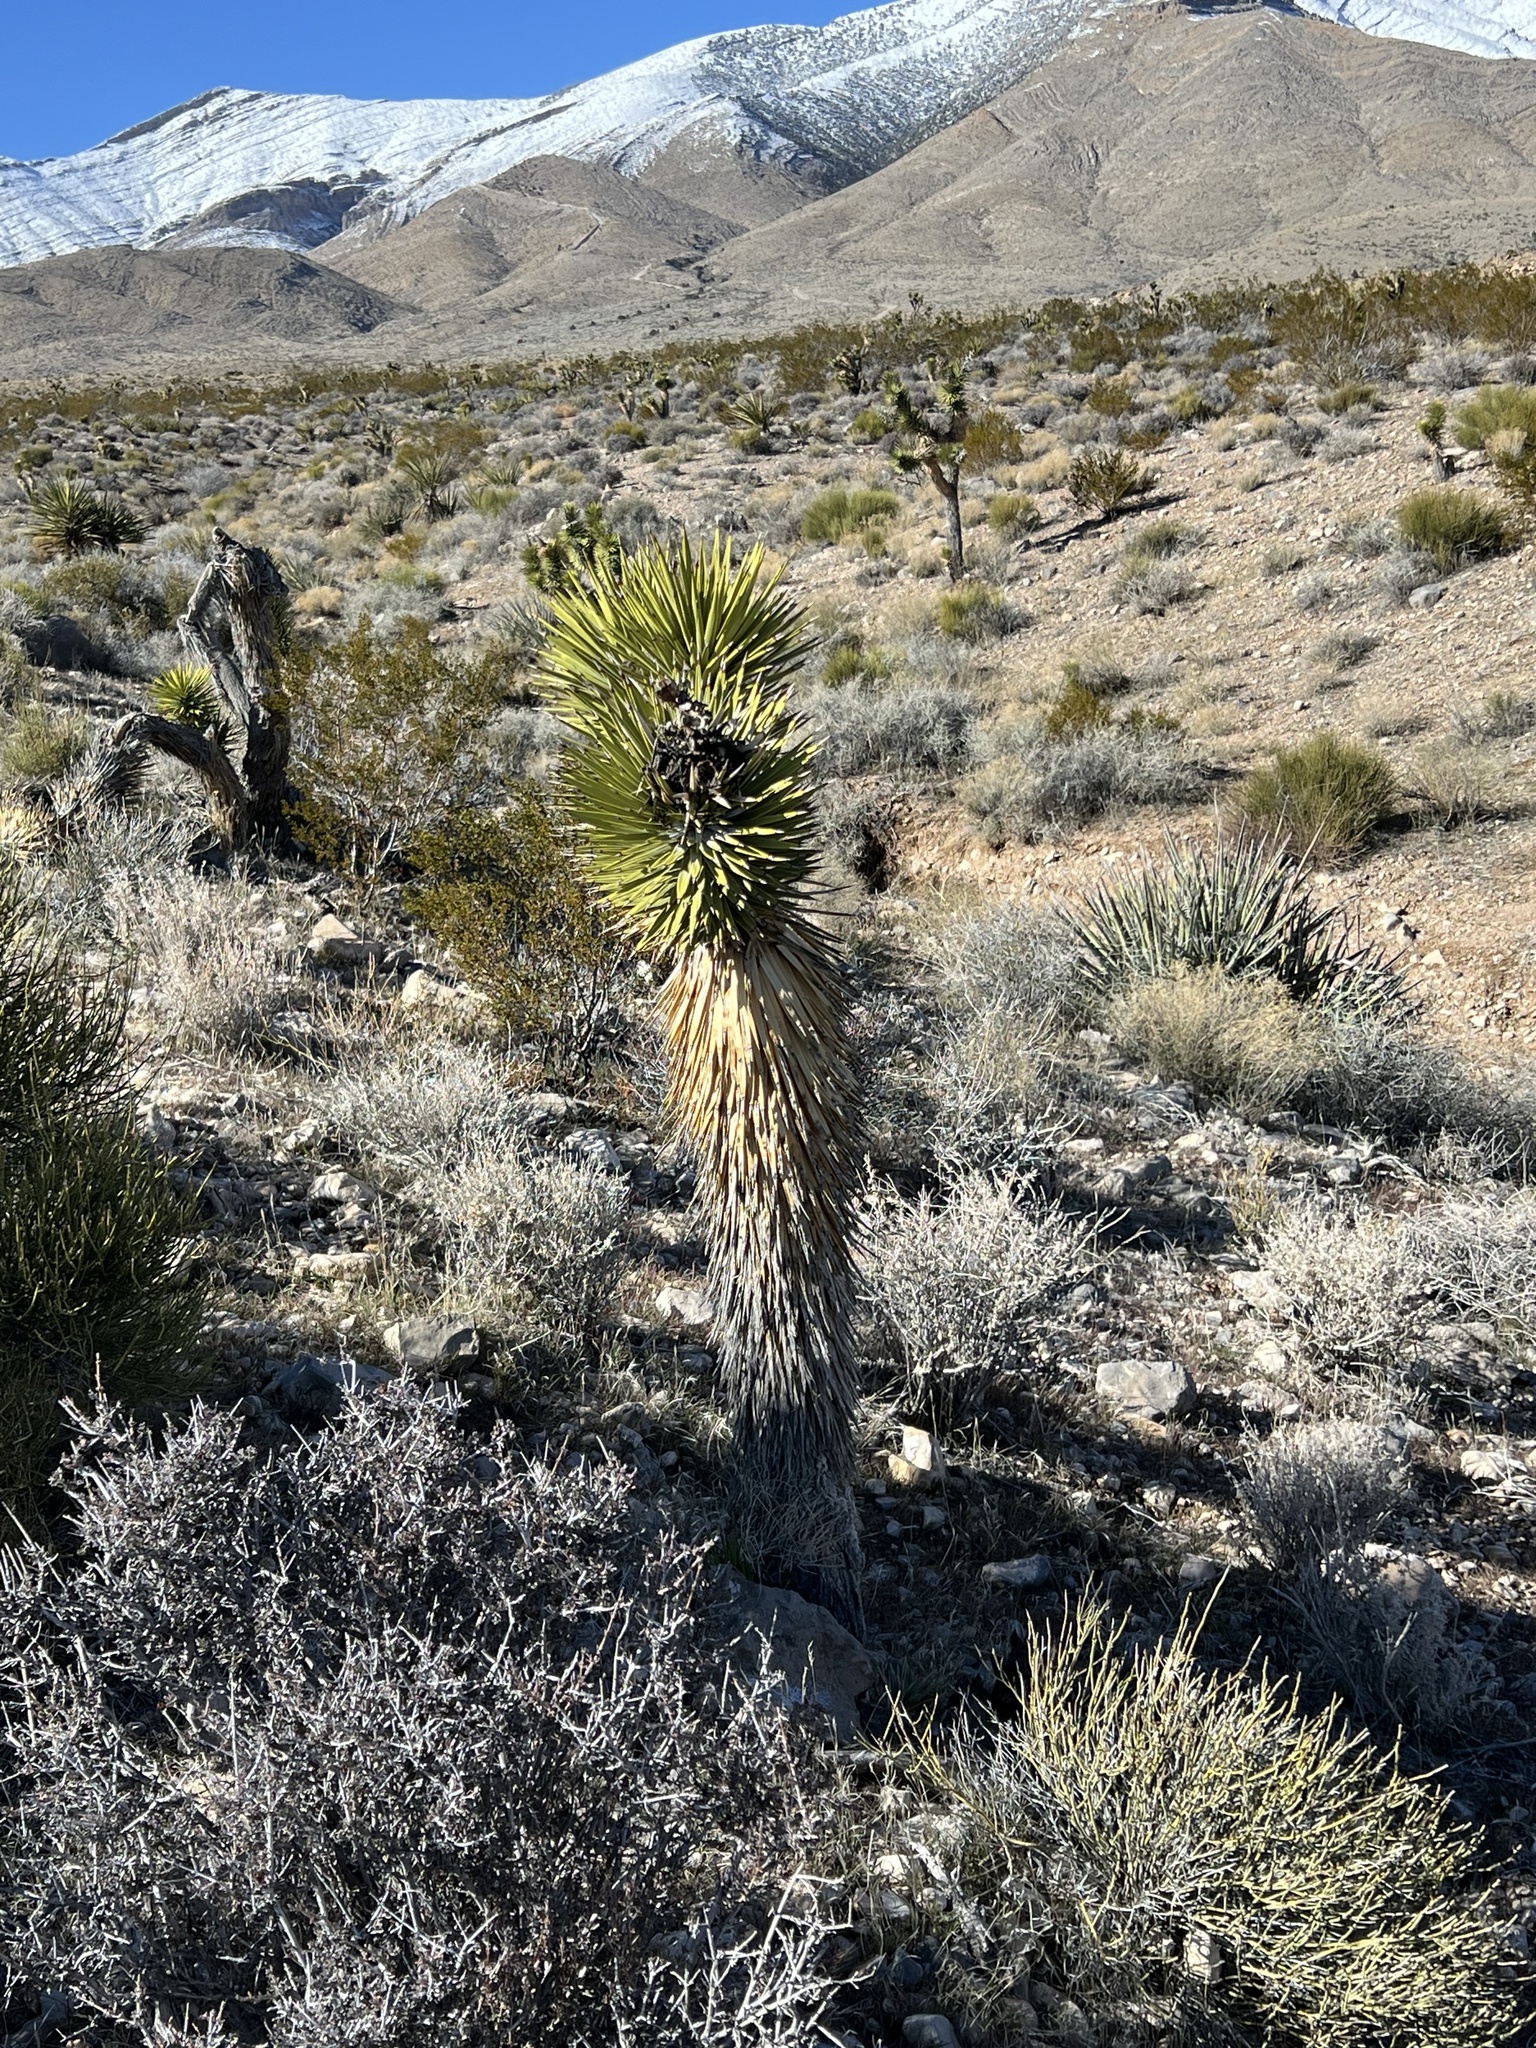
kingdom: Plantae
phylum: Tracheophyta
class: Liliopsida
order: Asparagales
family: Asparagaceae
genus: Yucca
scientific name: Yucca brevifolia
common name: Joshua tree
